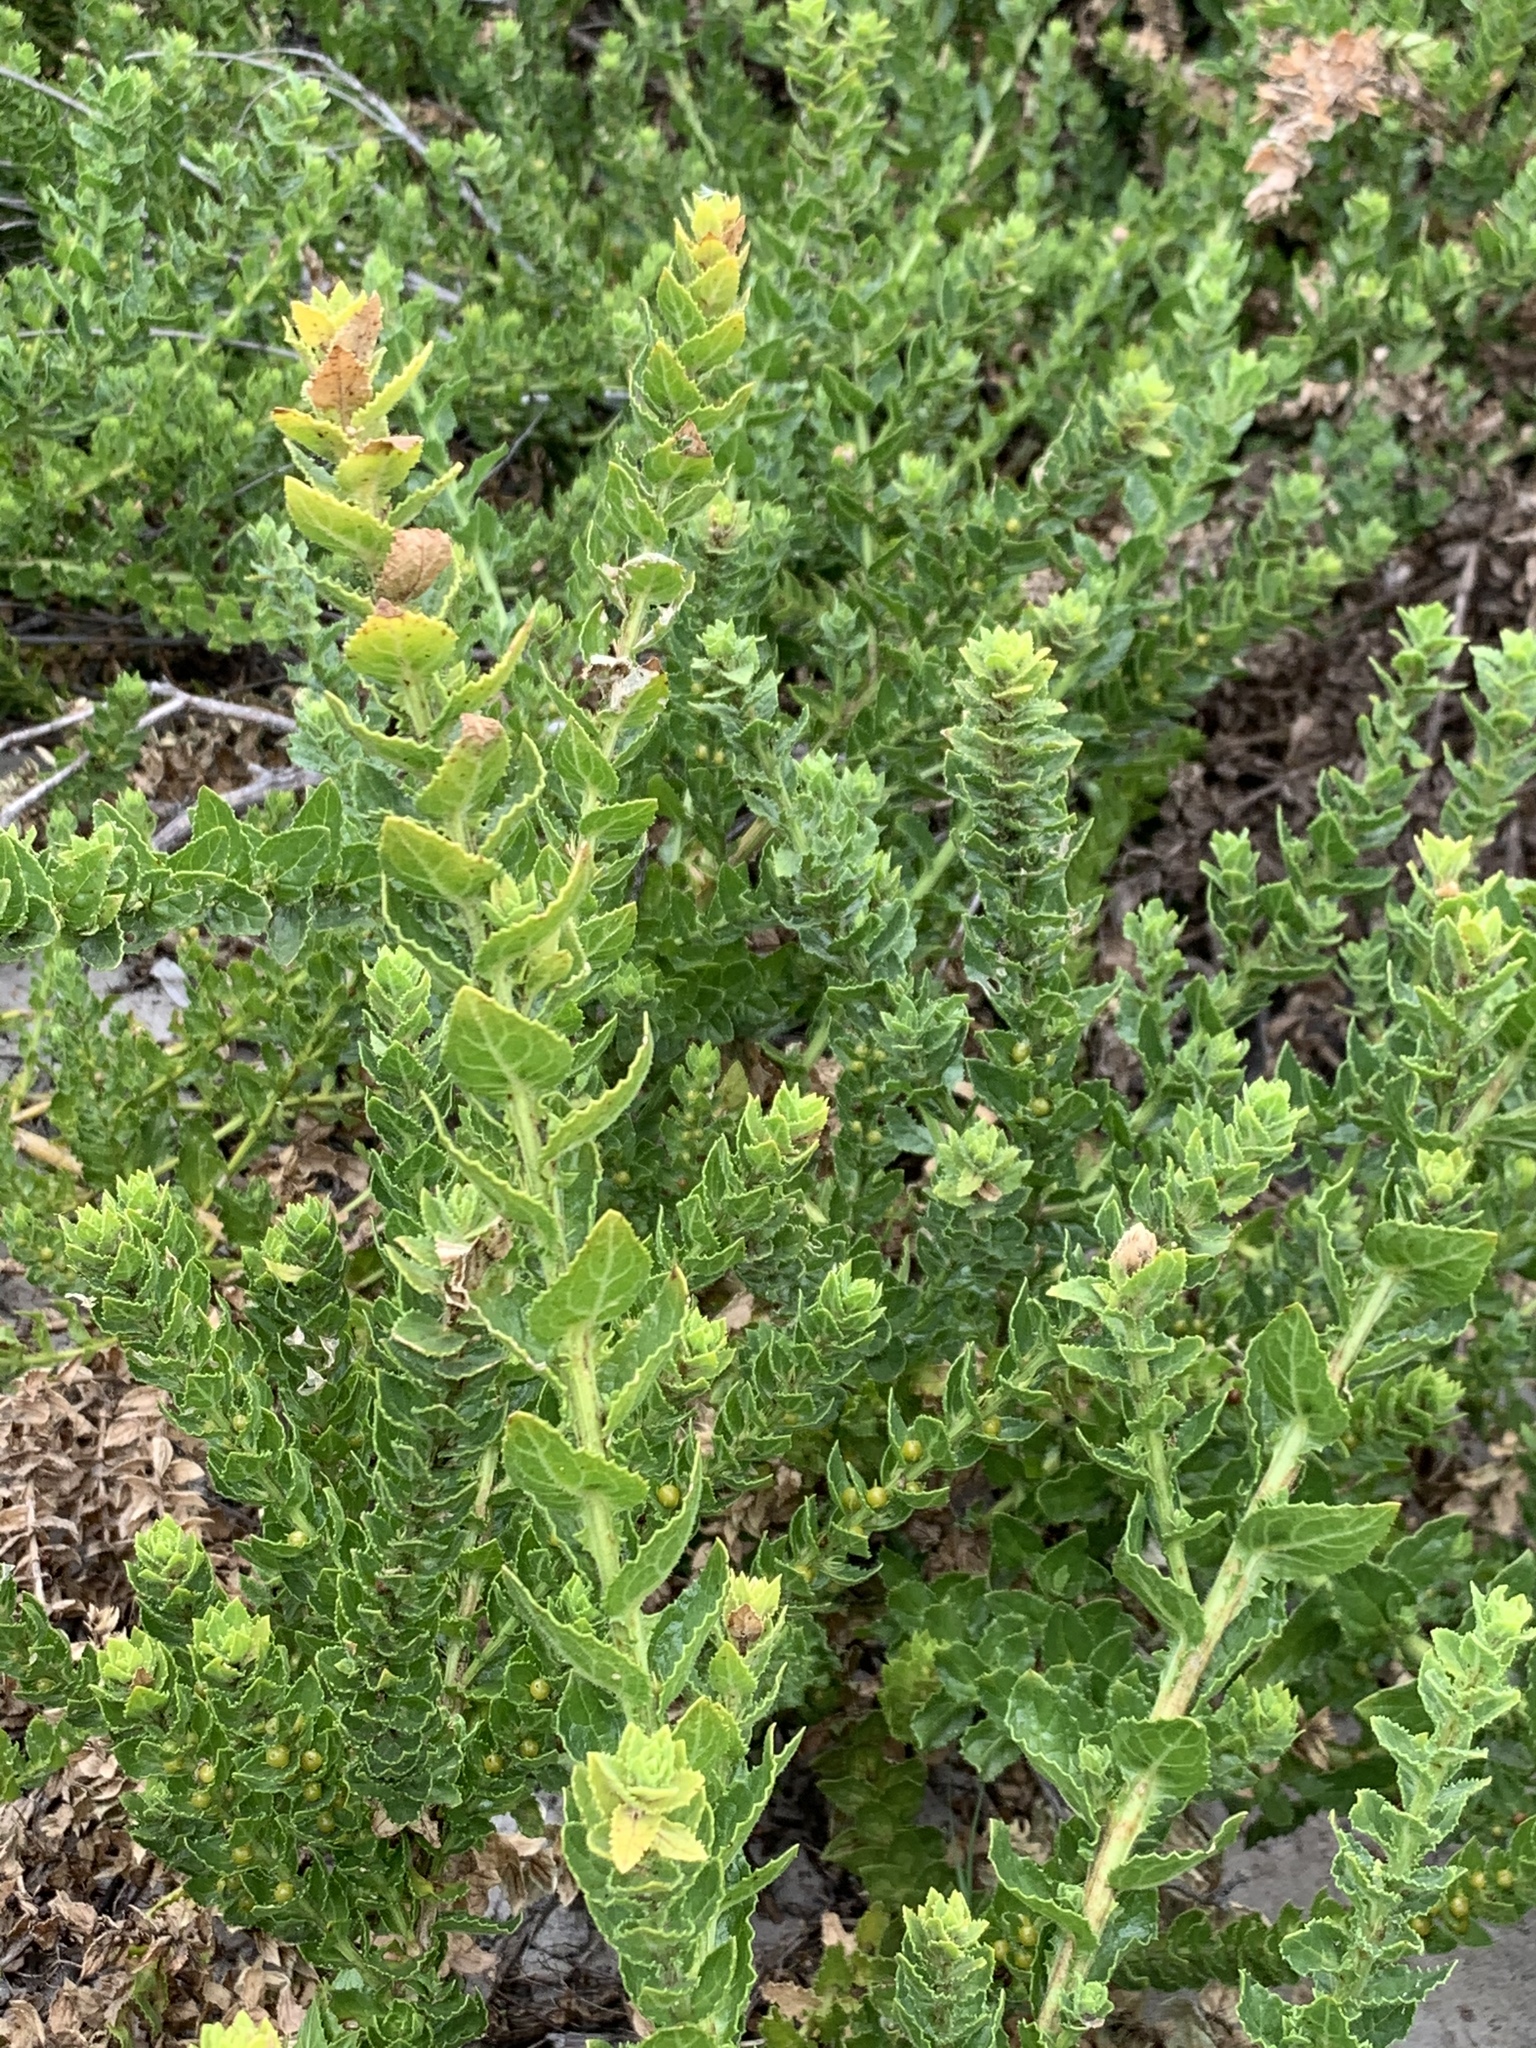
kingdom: Plantae
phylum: Tracheophyta
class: Magnoliopsida
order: Lamiales
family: Scrophulariaceae
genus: Oftia
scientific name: Oftia africana
